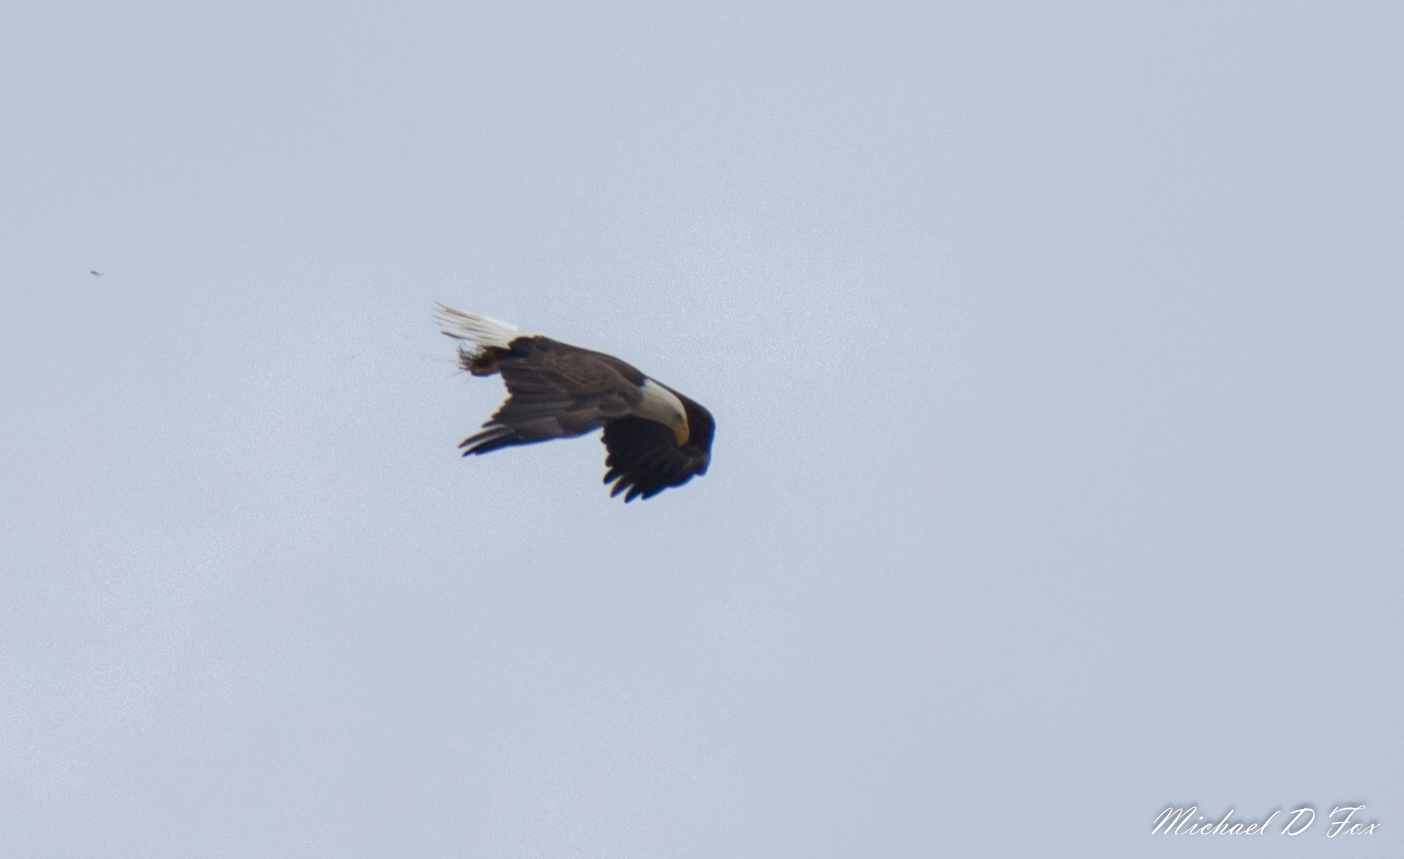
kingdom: Animalia
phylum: Chordata
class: Aves
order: Accipitriformes
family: Accipitridae
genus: Haliaeetus
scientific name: Haliaeetus leucocephalus
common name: Bald eagle
